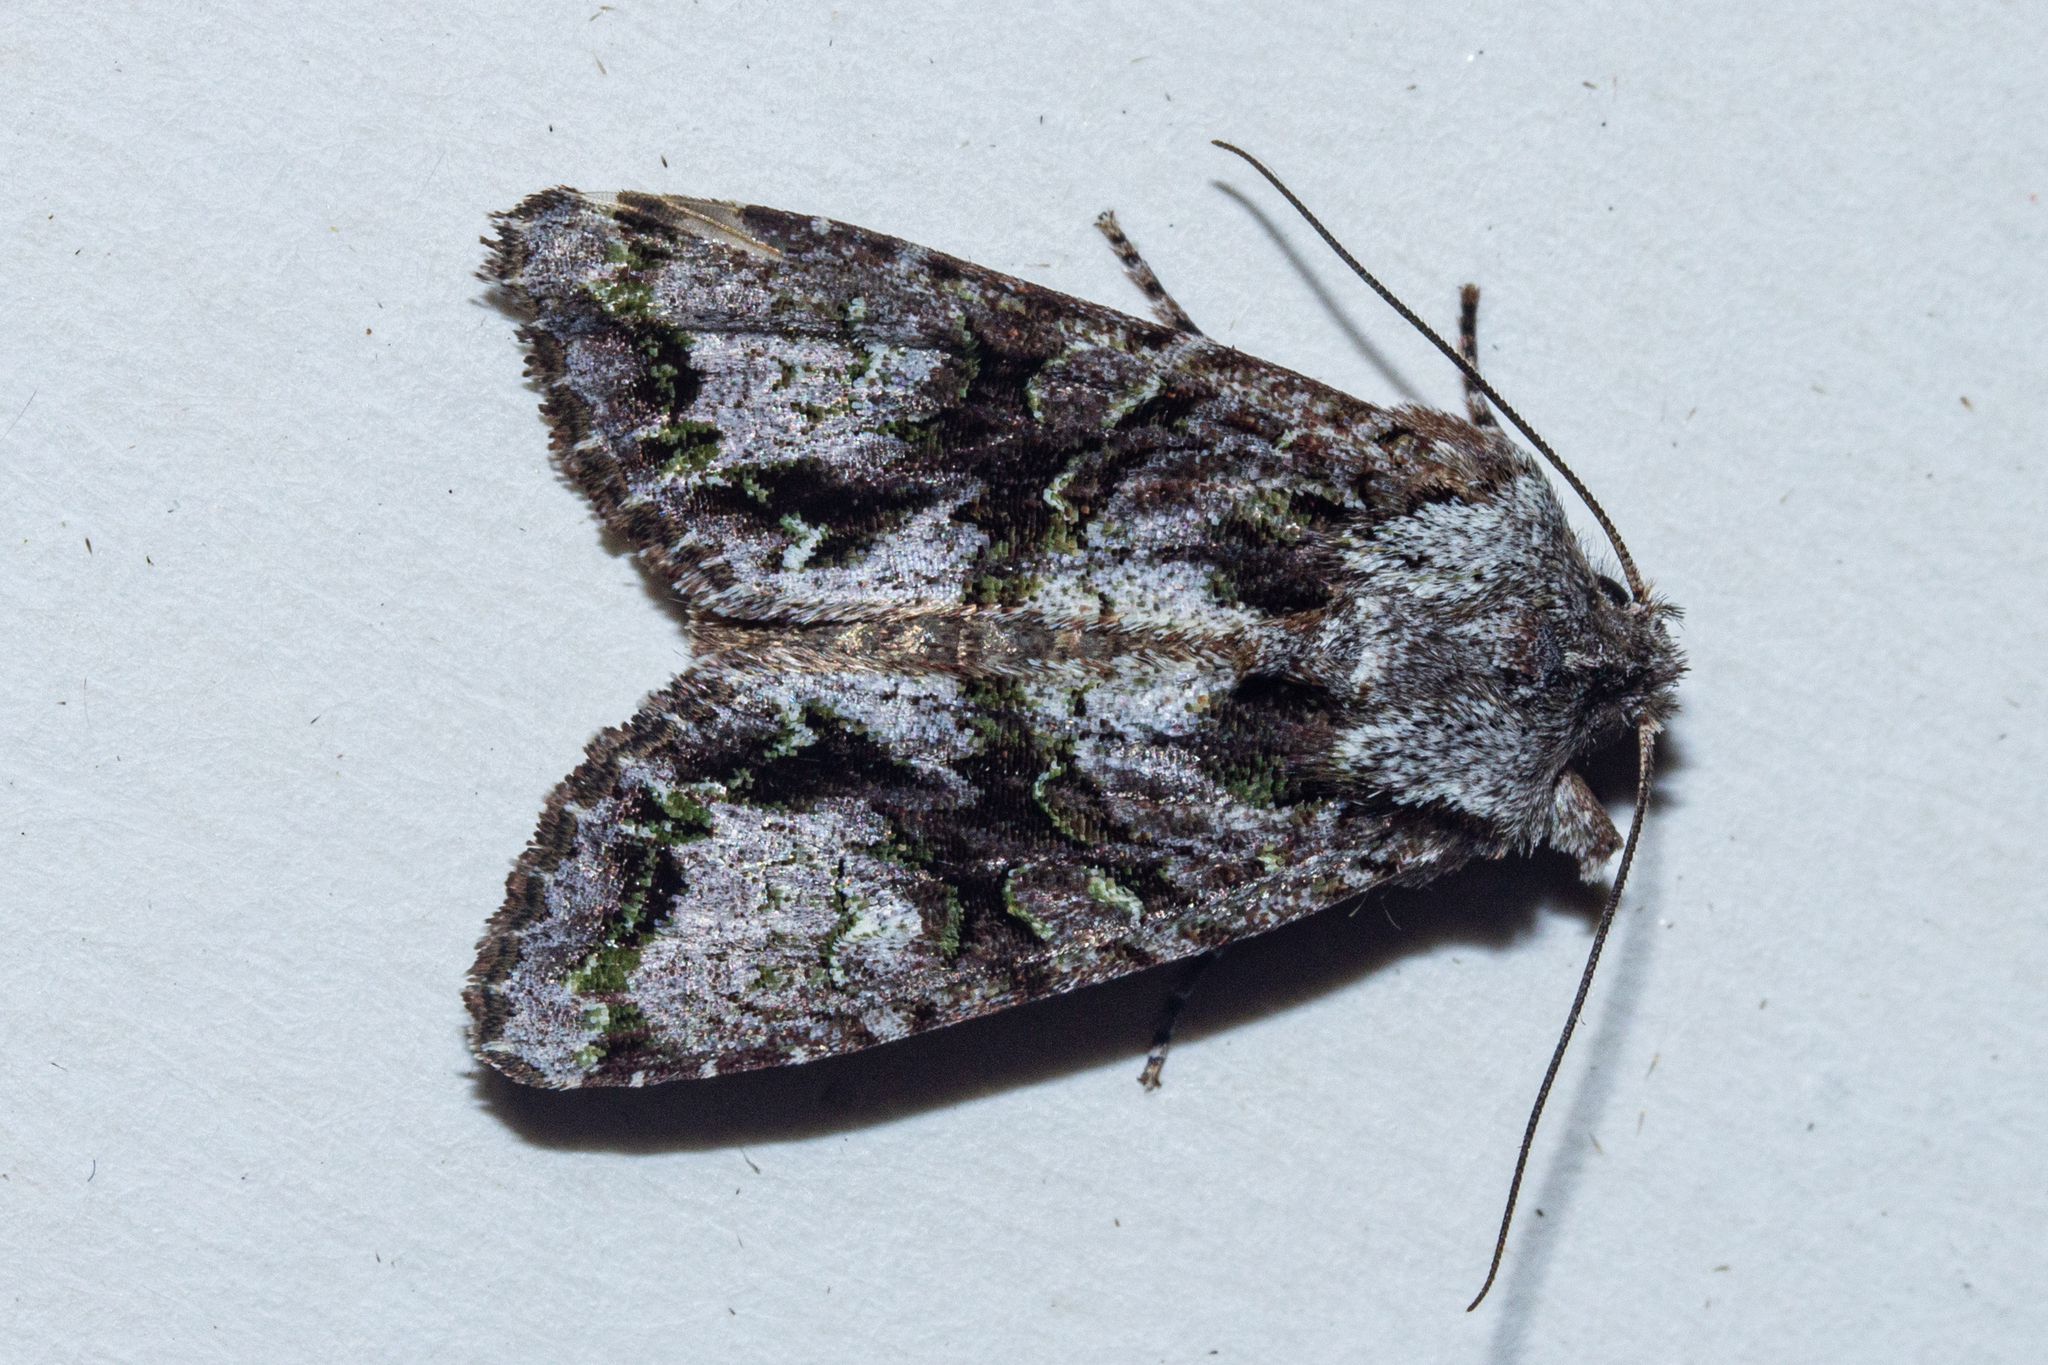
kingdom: Animalia
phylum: Arthropoda
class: Insecta
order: Lepidoptera
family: Noctuidae
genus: Ichneutica
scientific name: Ichneutica skelloni
